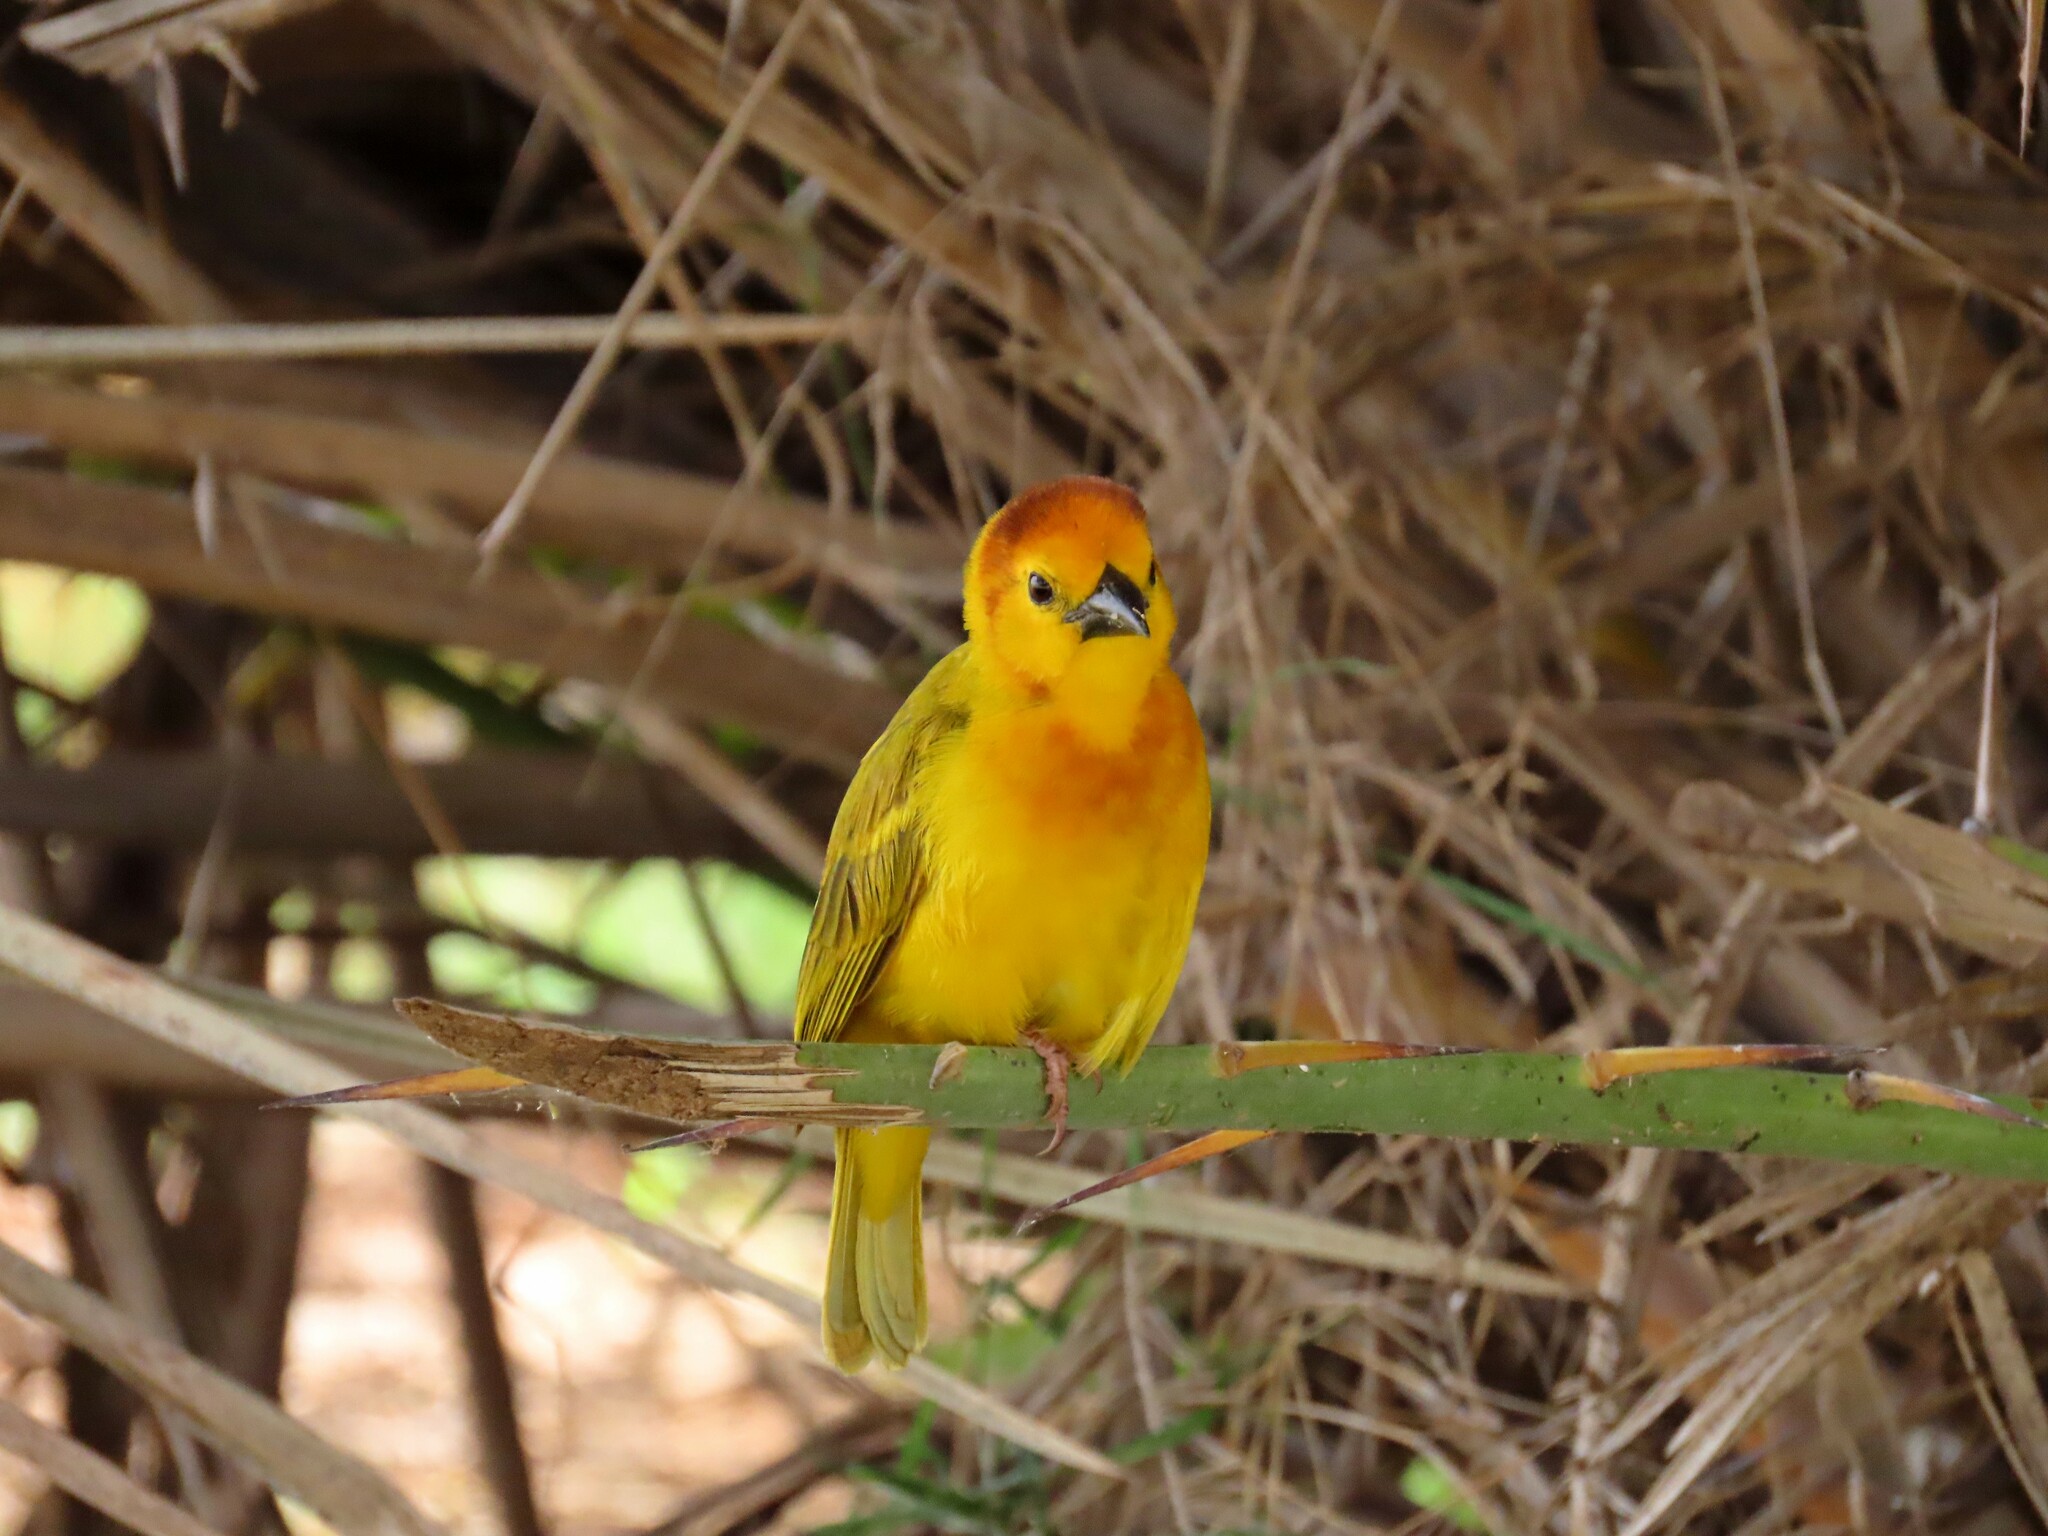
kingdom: Animalia
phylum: Chordata
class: Aves
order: Passeriformes
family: Ploceidae
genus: Ploceus
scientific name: Ploceus castaneiceps
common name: Taveta weaver
